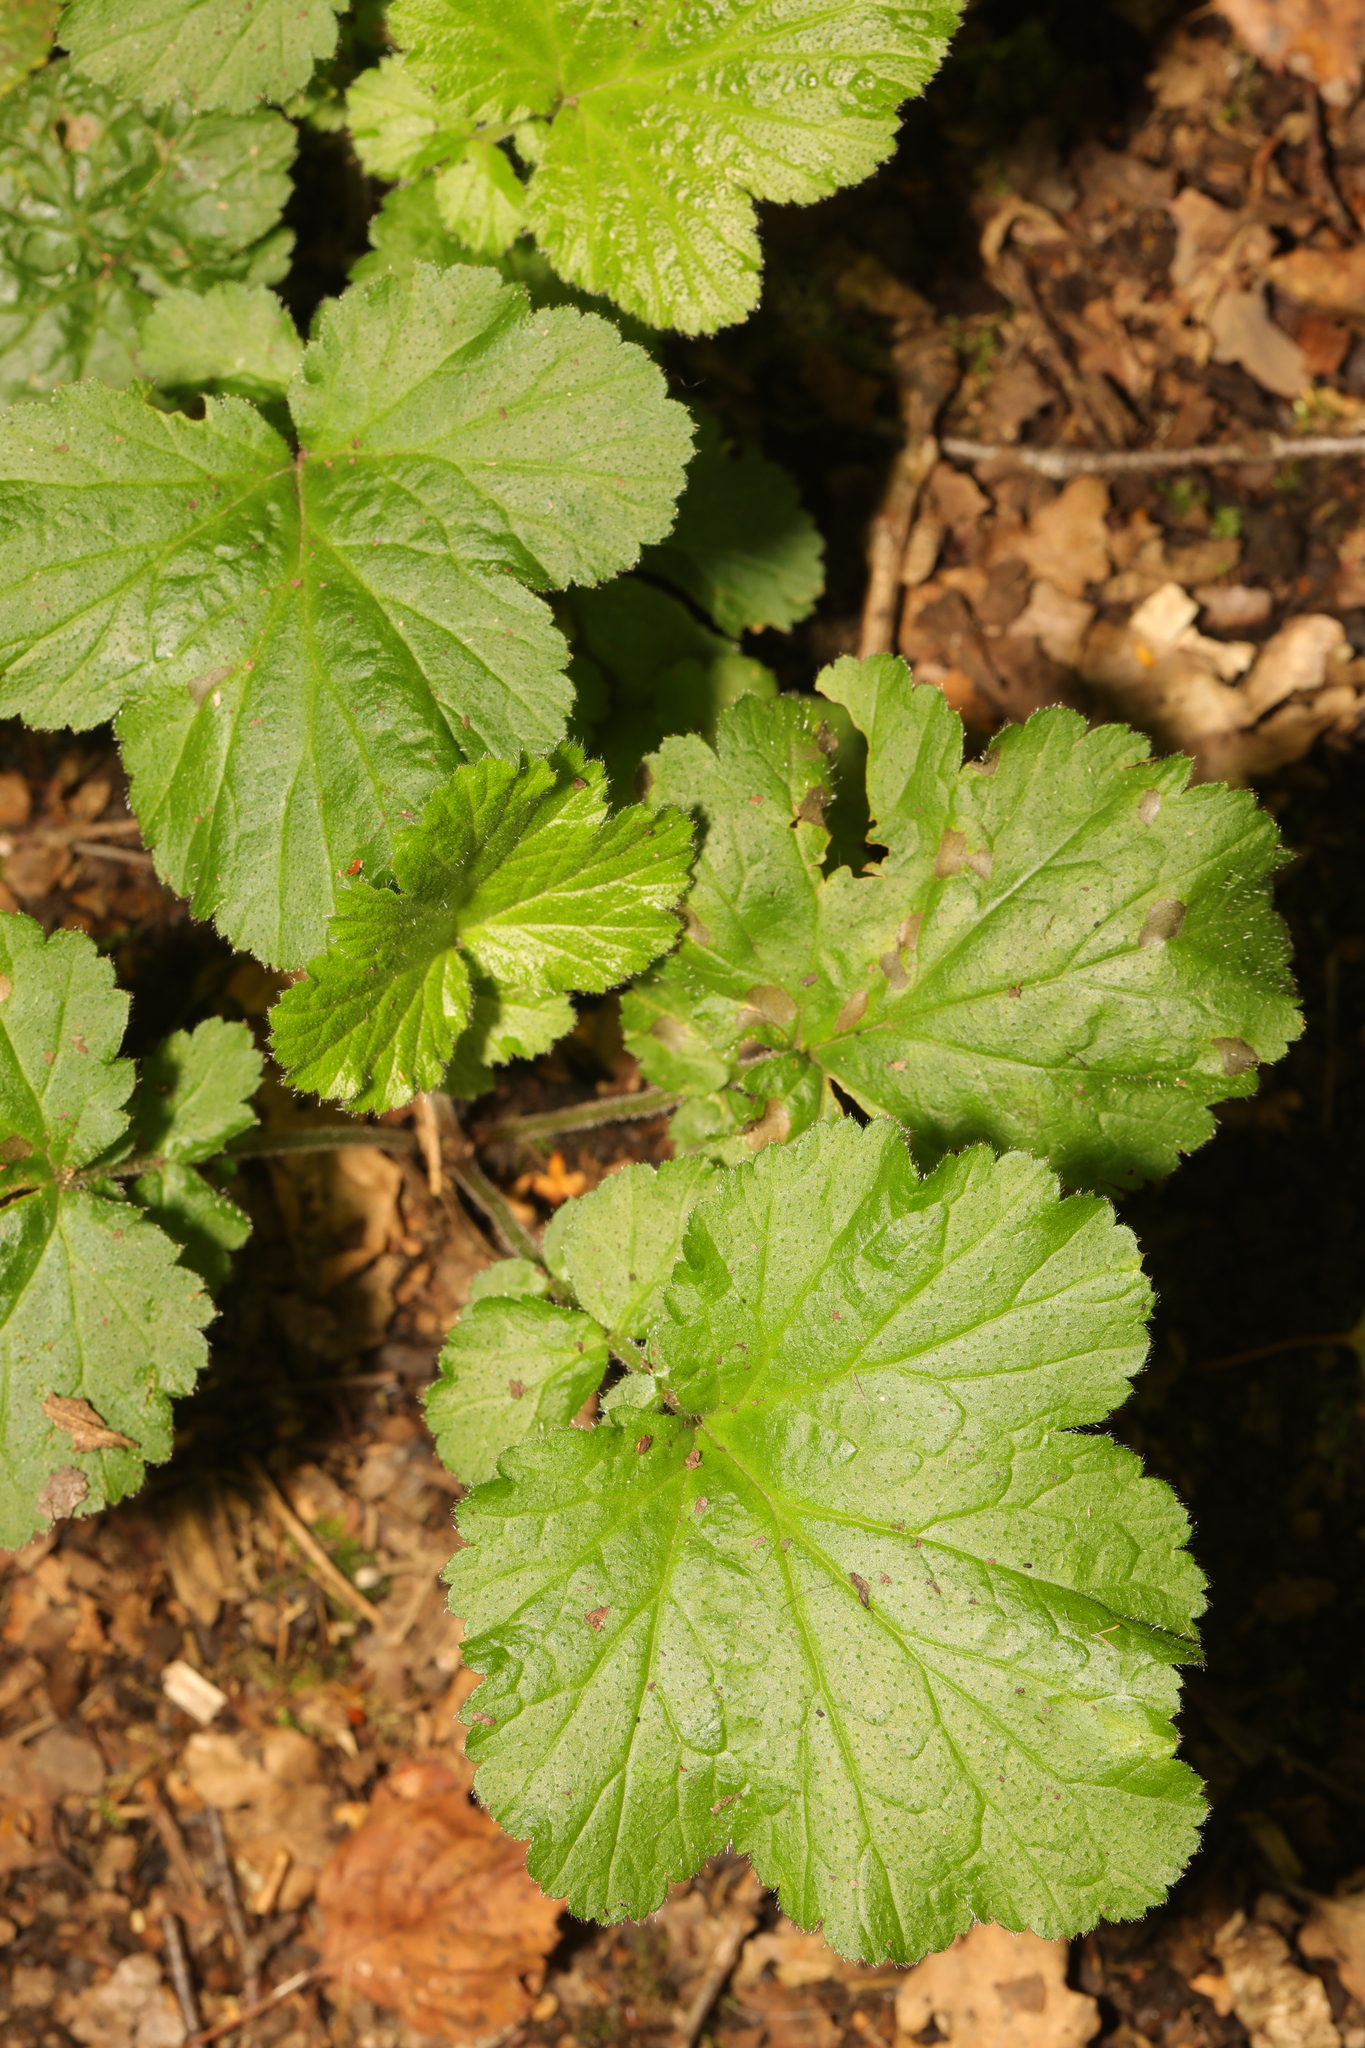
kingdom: Plantae
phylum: Tracheophyta
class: Magnoliopsida
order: Rosales
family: Rosaceae
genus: Geum
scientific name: Geum urbanum
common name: Wood avens
